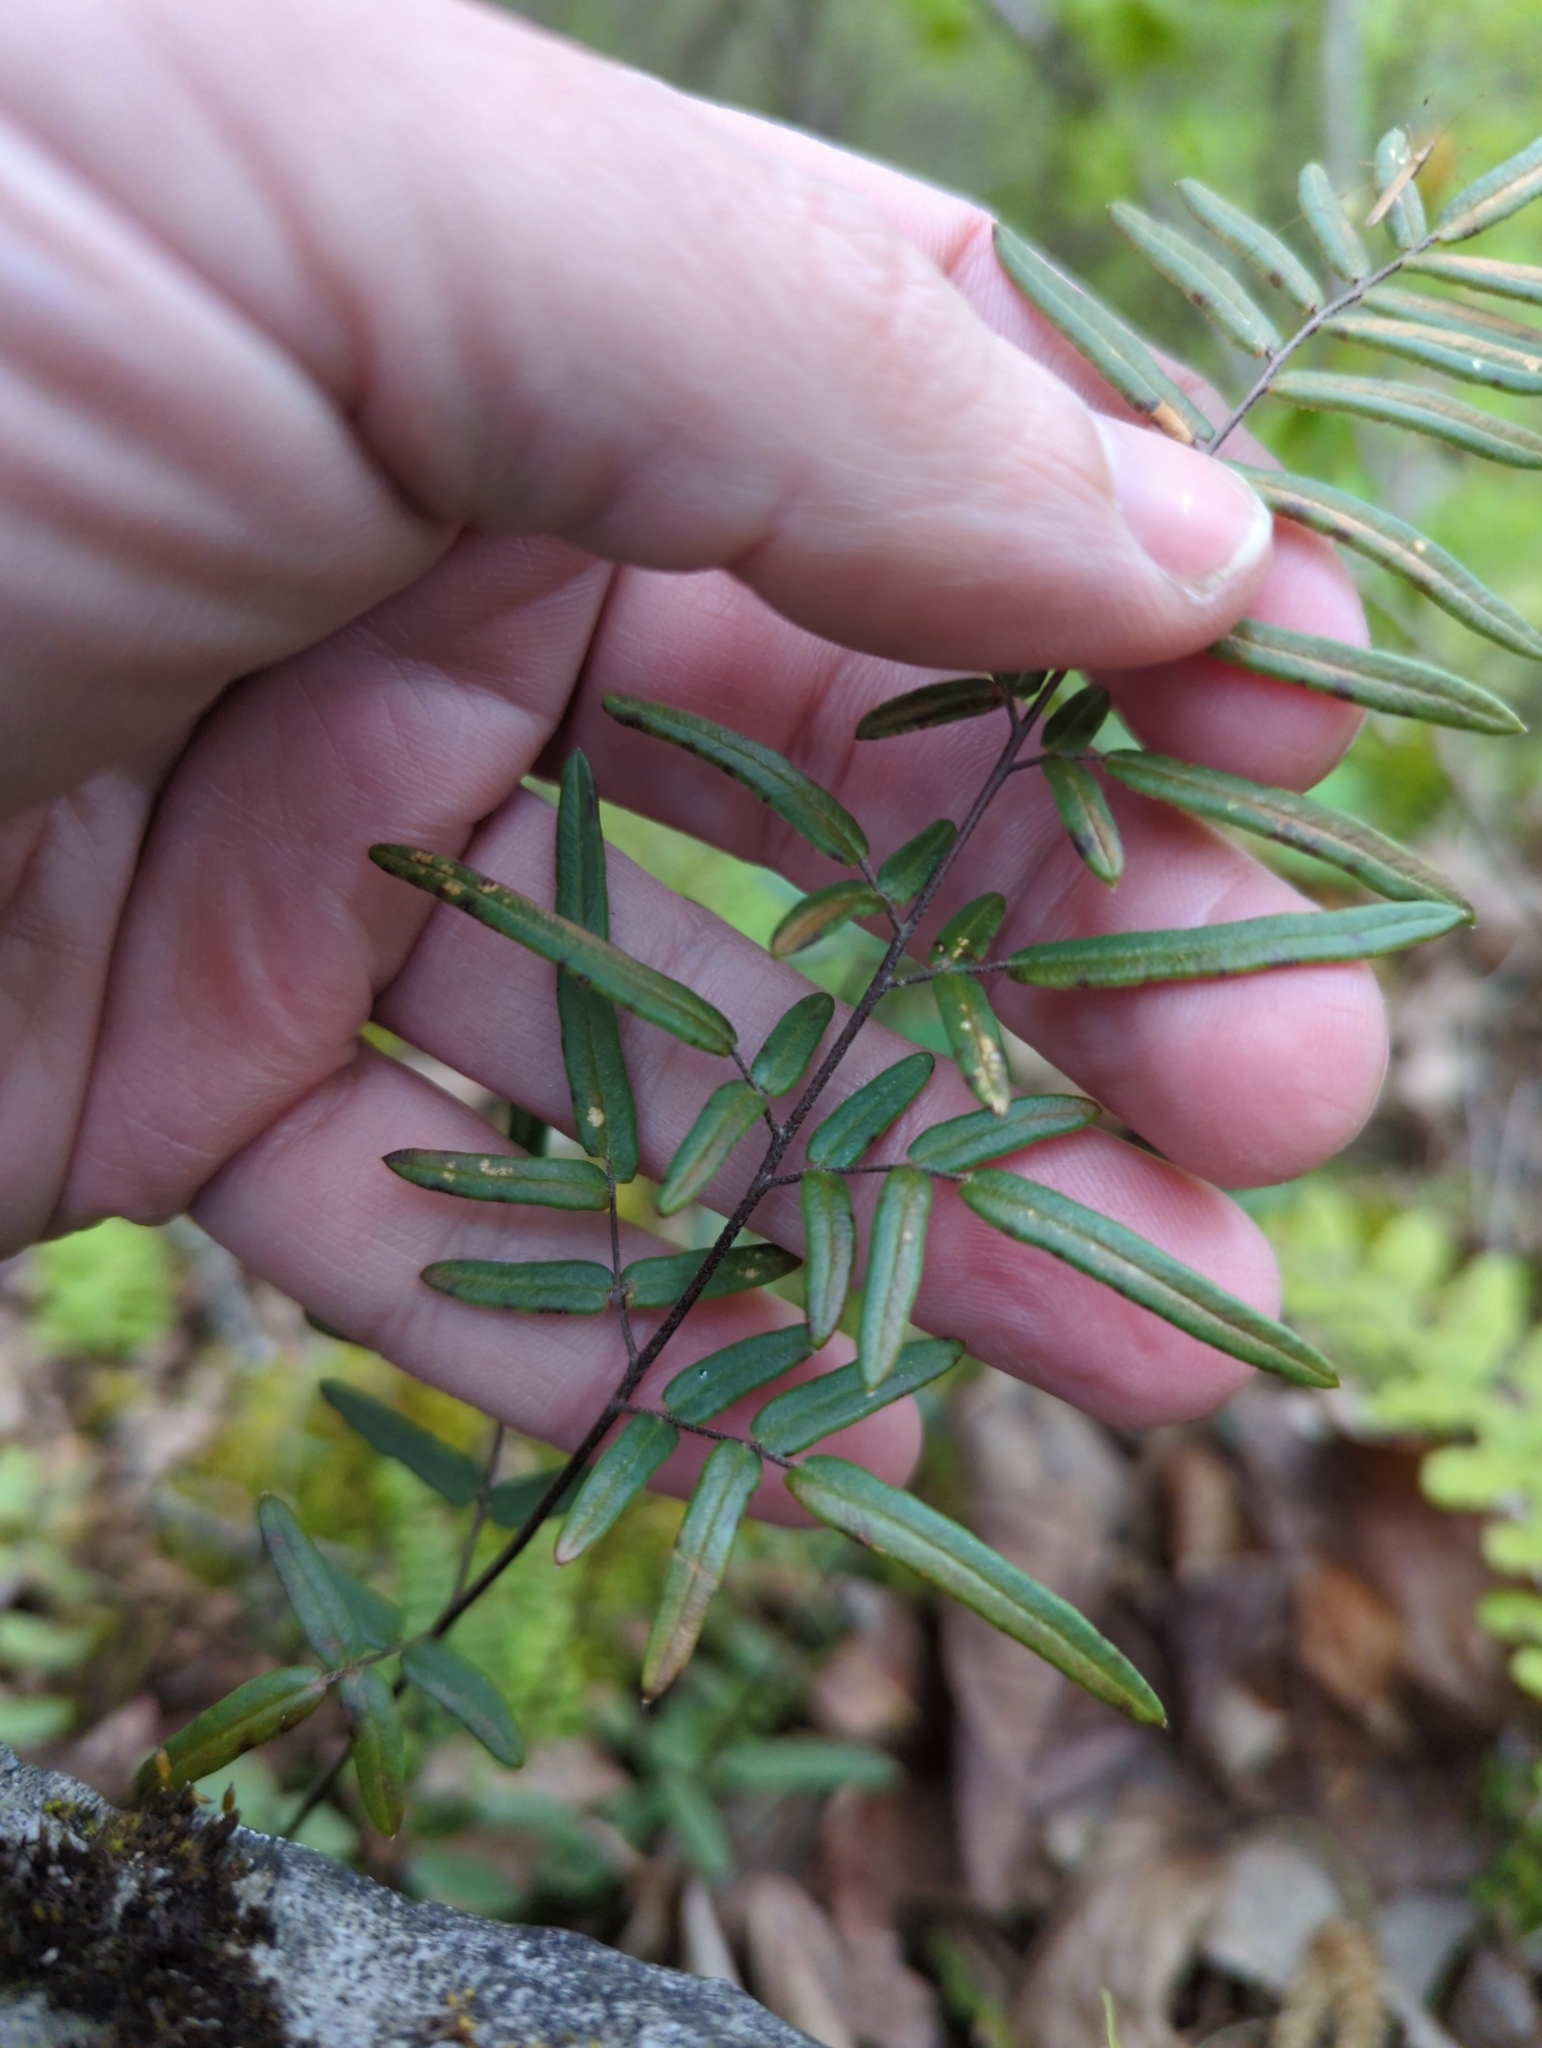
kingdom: Plantae
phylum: Tracheophyta
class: Polypodiopsida
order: Polypodiales
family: Pteridaceae
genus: Pellaea
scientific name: Pellaea atropurpurea
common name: Hairy cliffbrake
